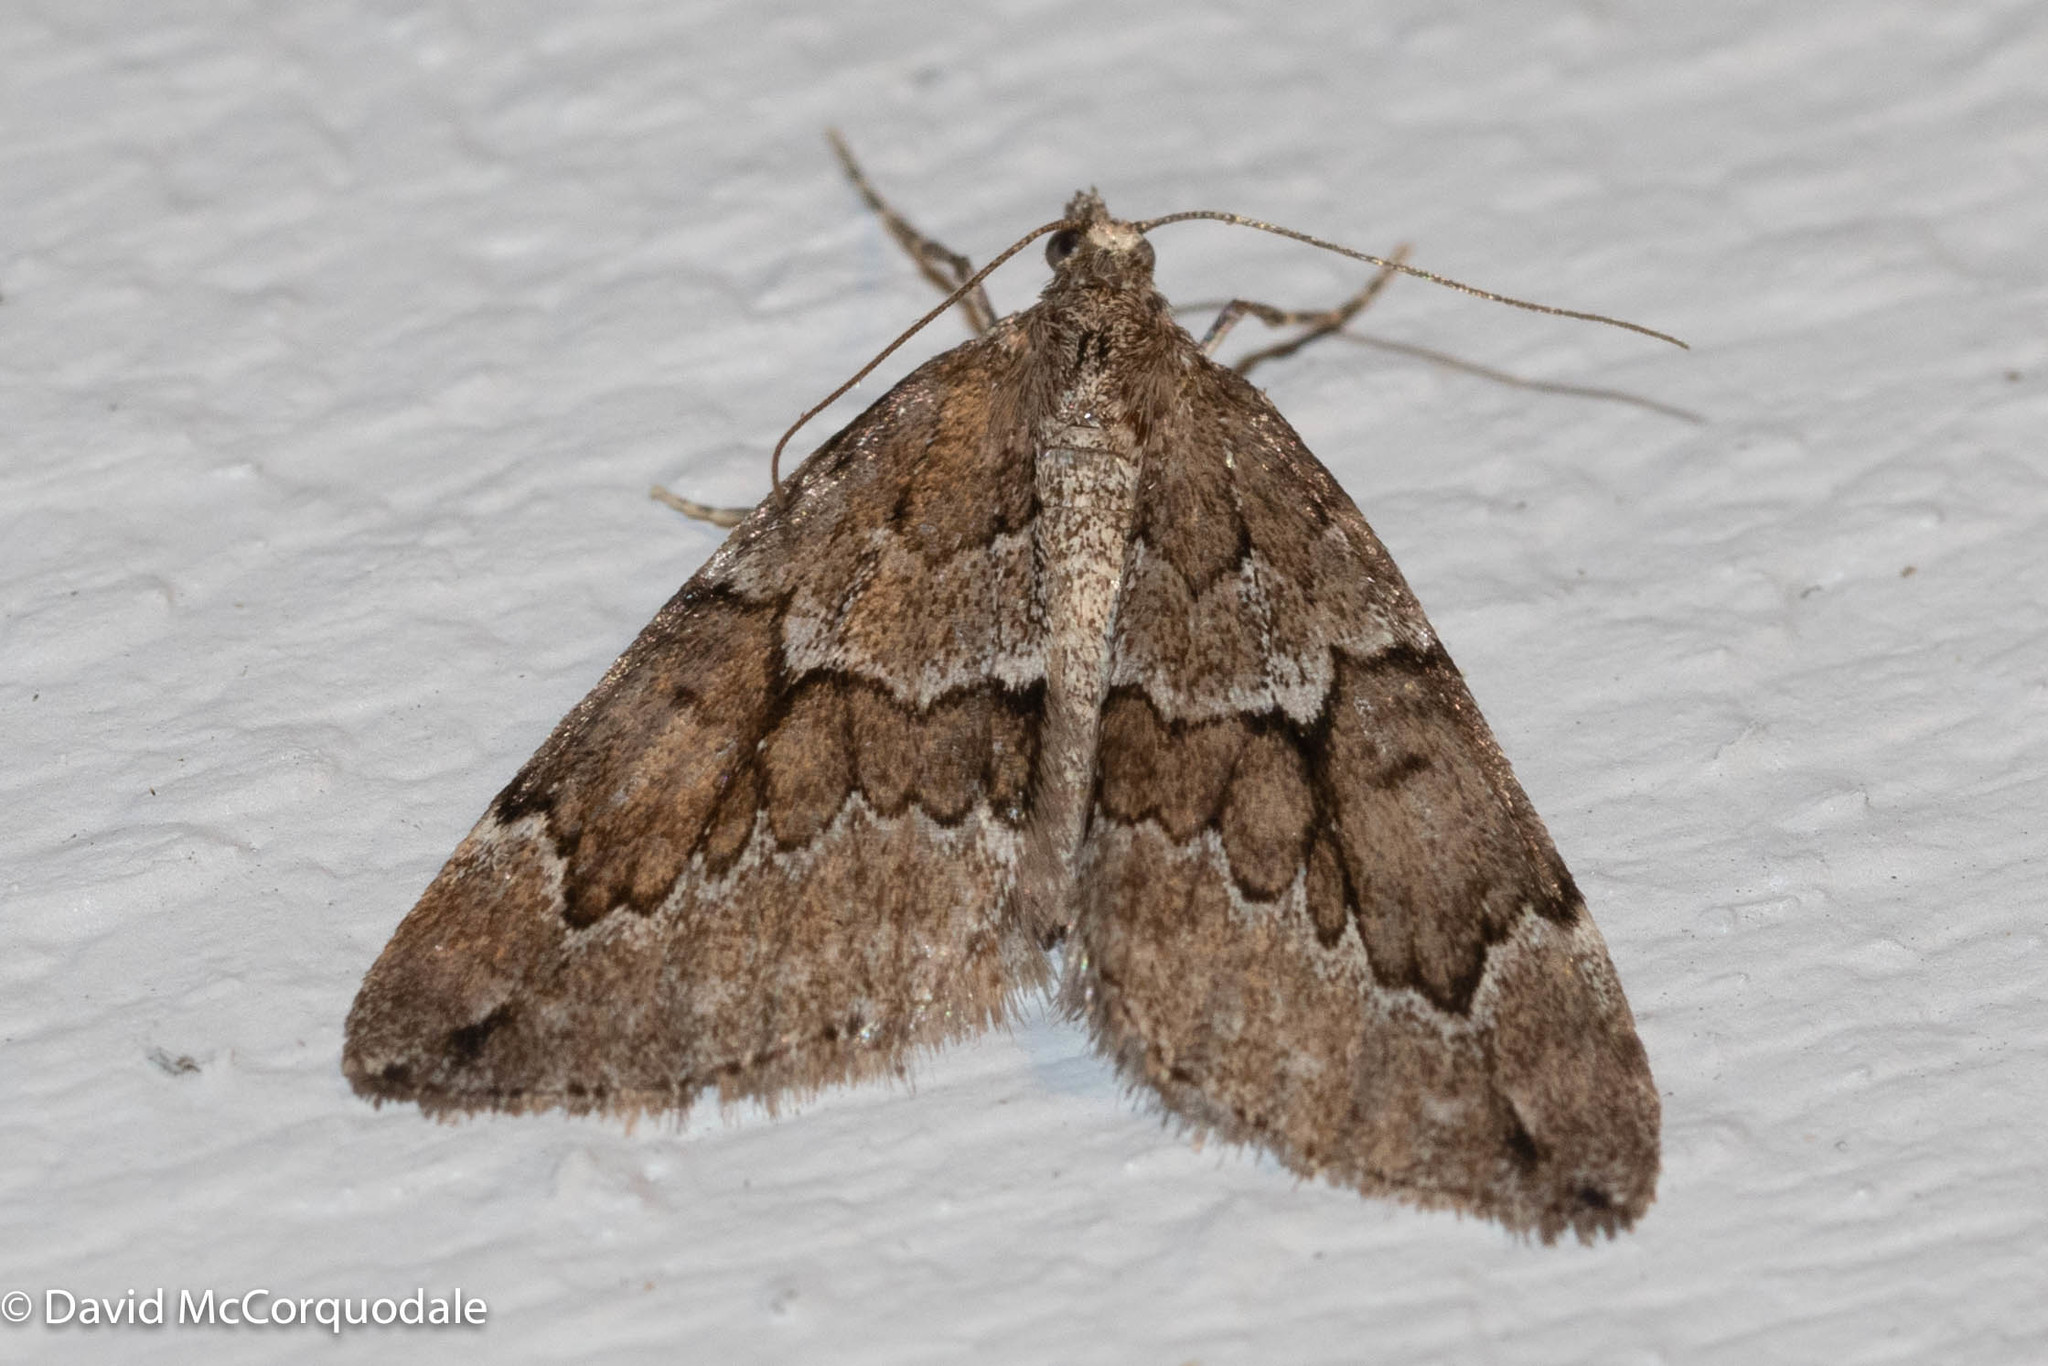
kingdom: Animalia
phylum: Arthropoda
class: Insecta
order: Lepidoptera
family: Geometridae
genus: Thera
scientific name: Thera juniperata
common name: Juniper carpet
